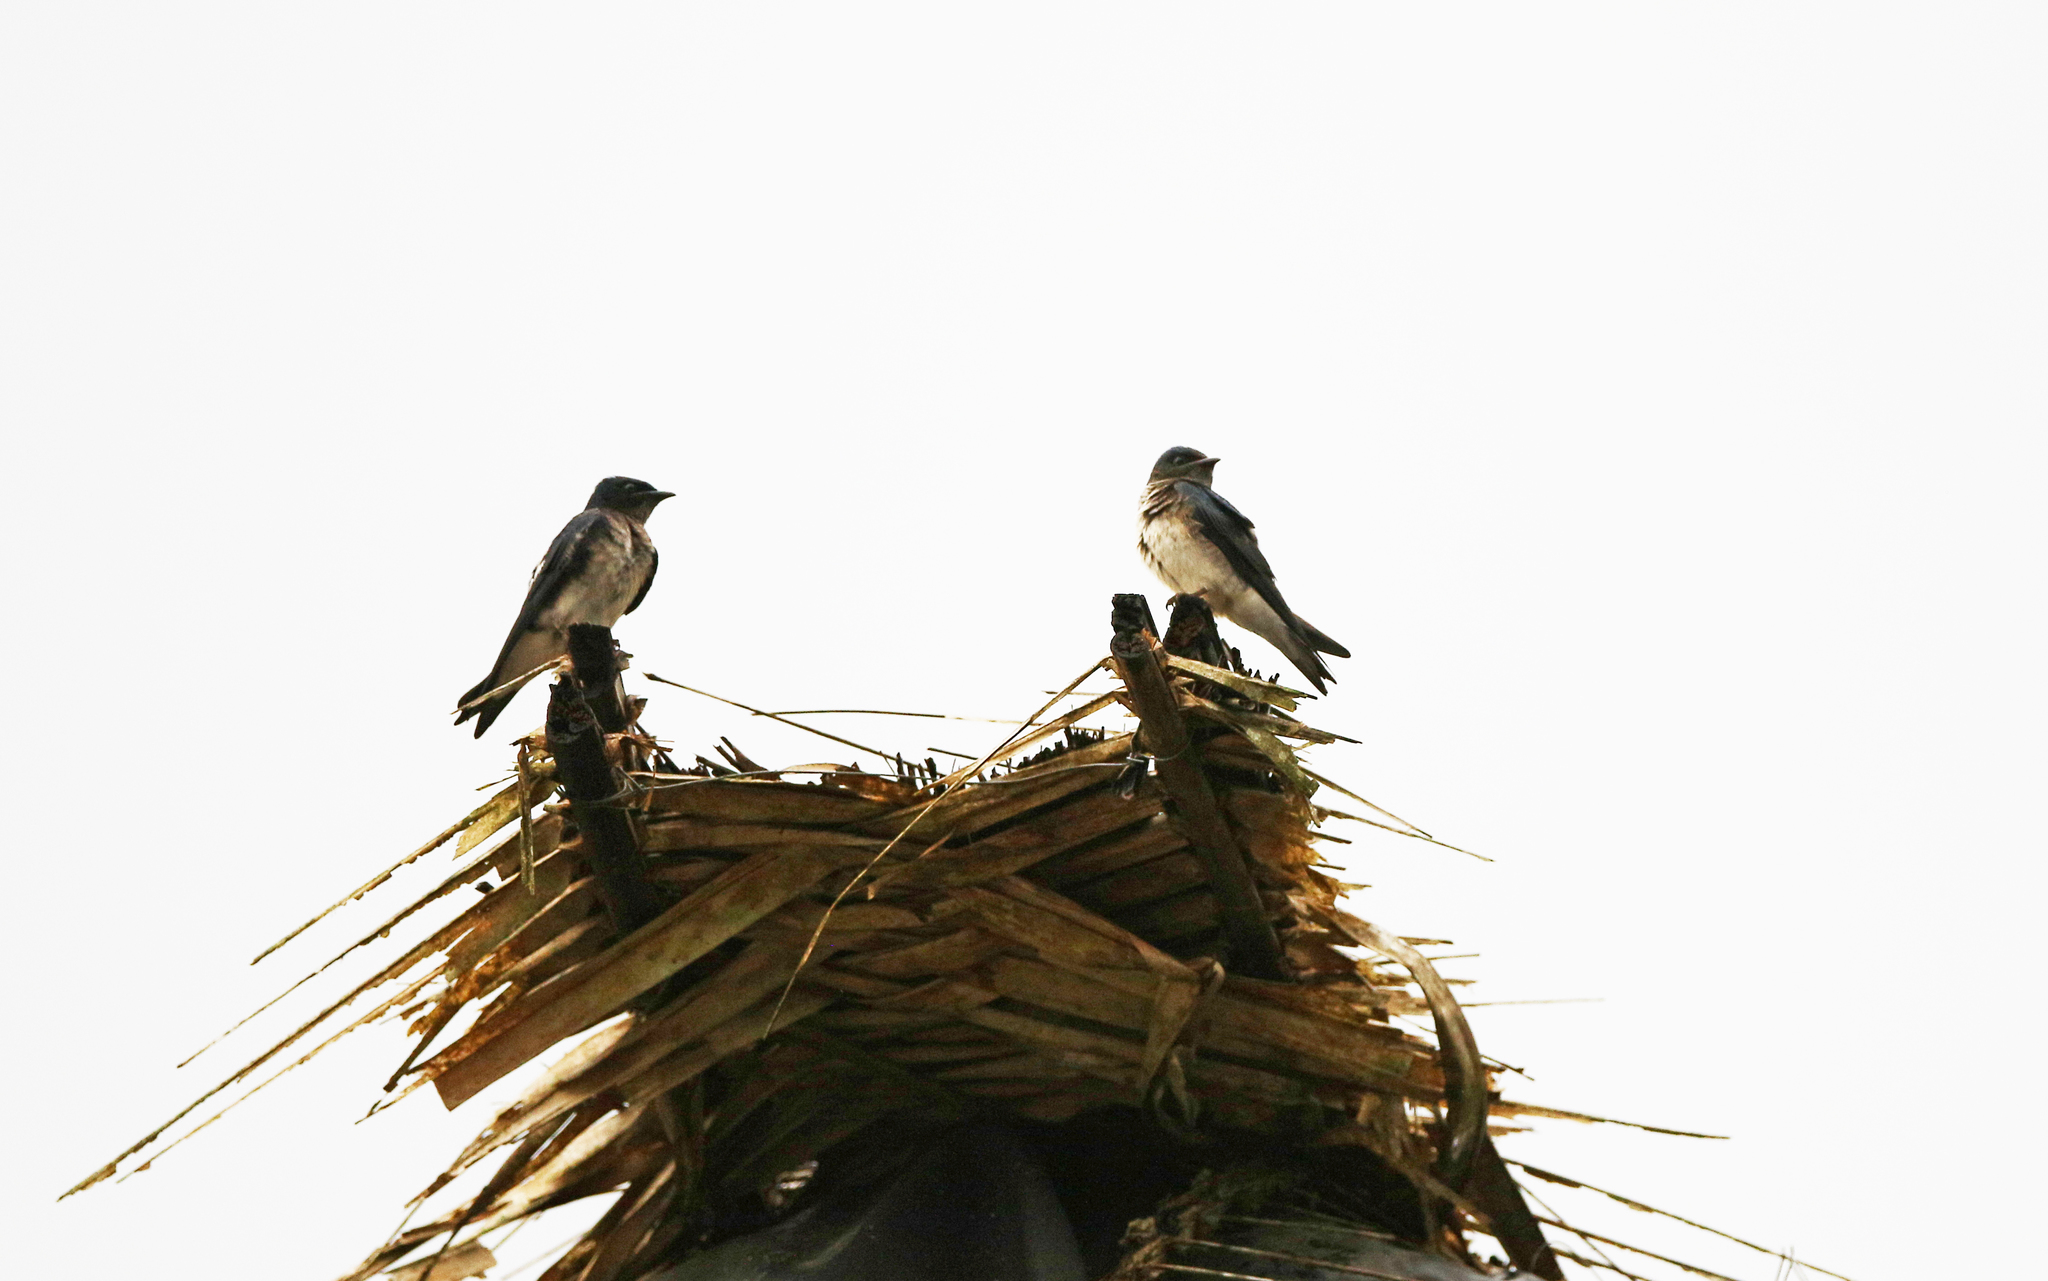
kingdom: Animalia
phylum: Chordata
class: Aves
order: Passeriformes
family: Hirundinidae
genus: Progne
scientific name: Progne chalybea
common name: Grey-breasted martin
